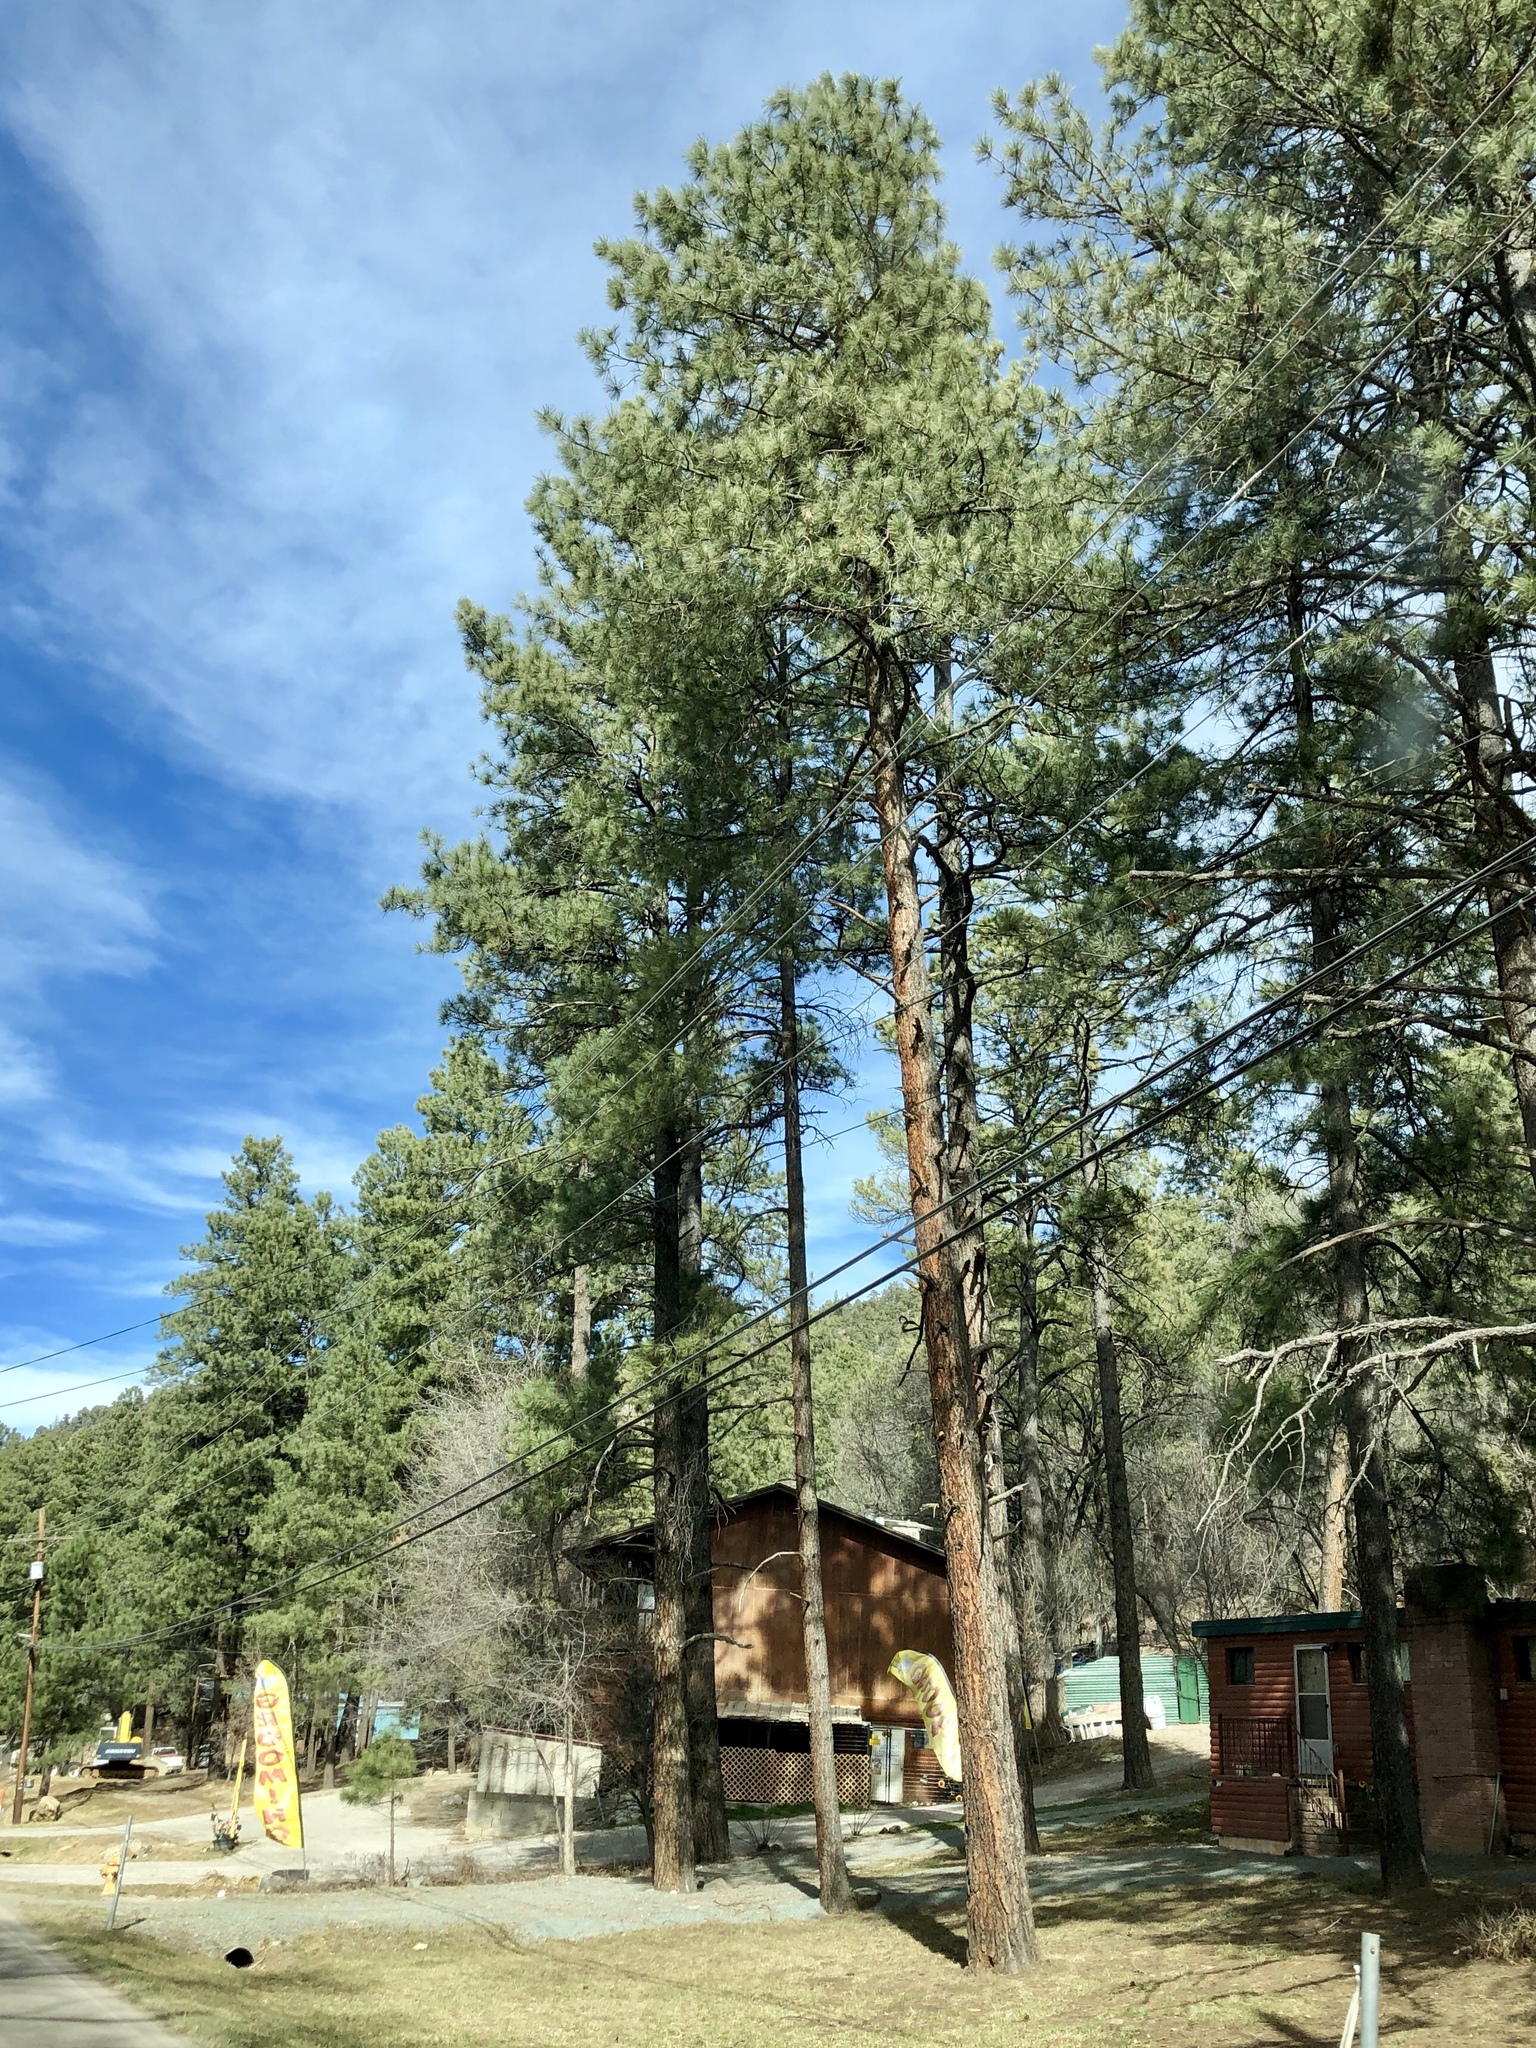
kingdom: Plantae
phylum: Tracheophyta
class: Pinopsida
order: Pinales
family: Pinaceae
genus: Pinus
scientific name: Pinus ponderosa
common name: Western yellow-pine
